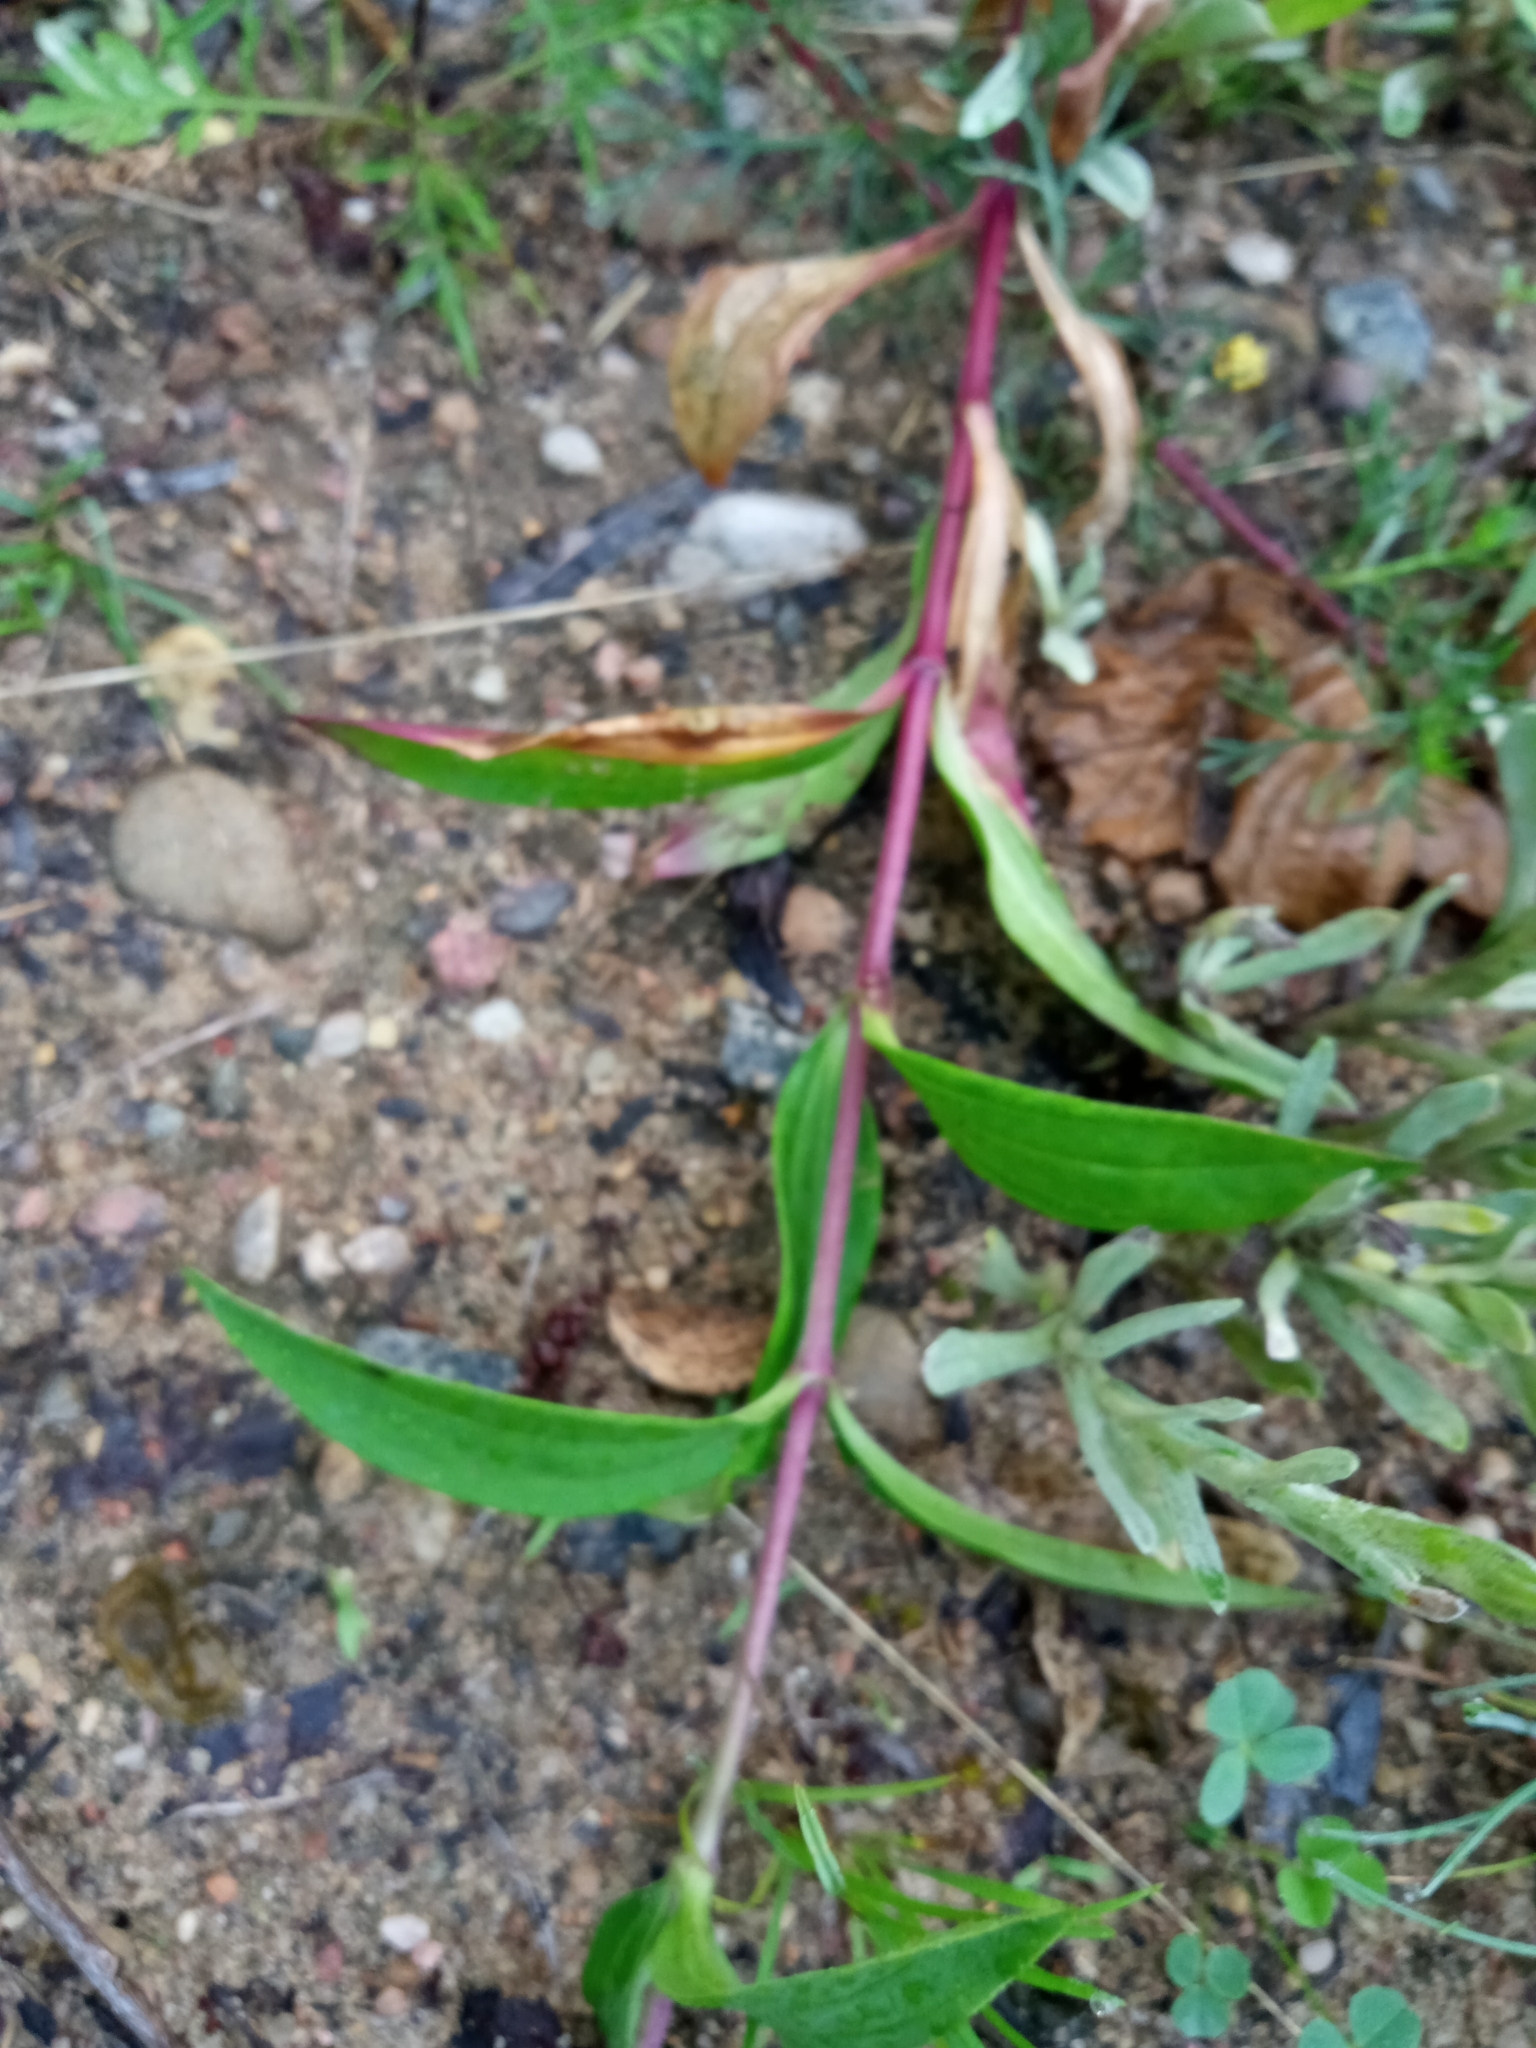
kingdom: Plantae
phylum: Tracheophyta
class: Magnoliopsida
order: Caryophyllales
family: Caryophyllaceae
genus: Saponaria
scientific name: Saponaria officinalis
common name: Soapwort
